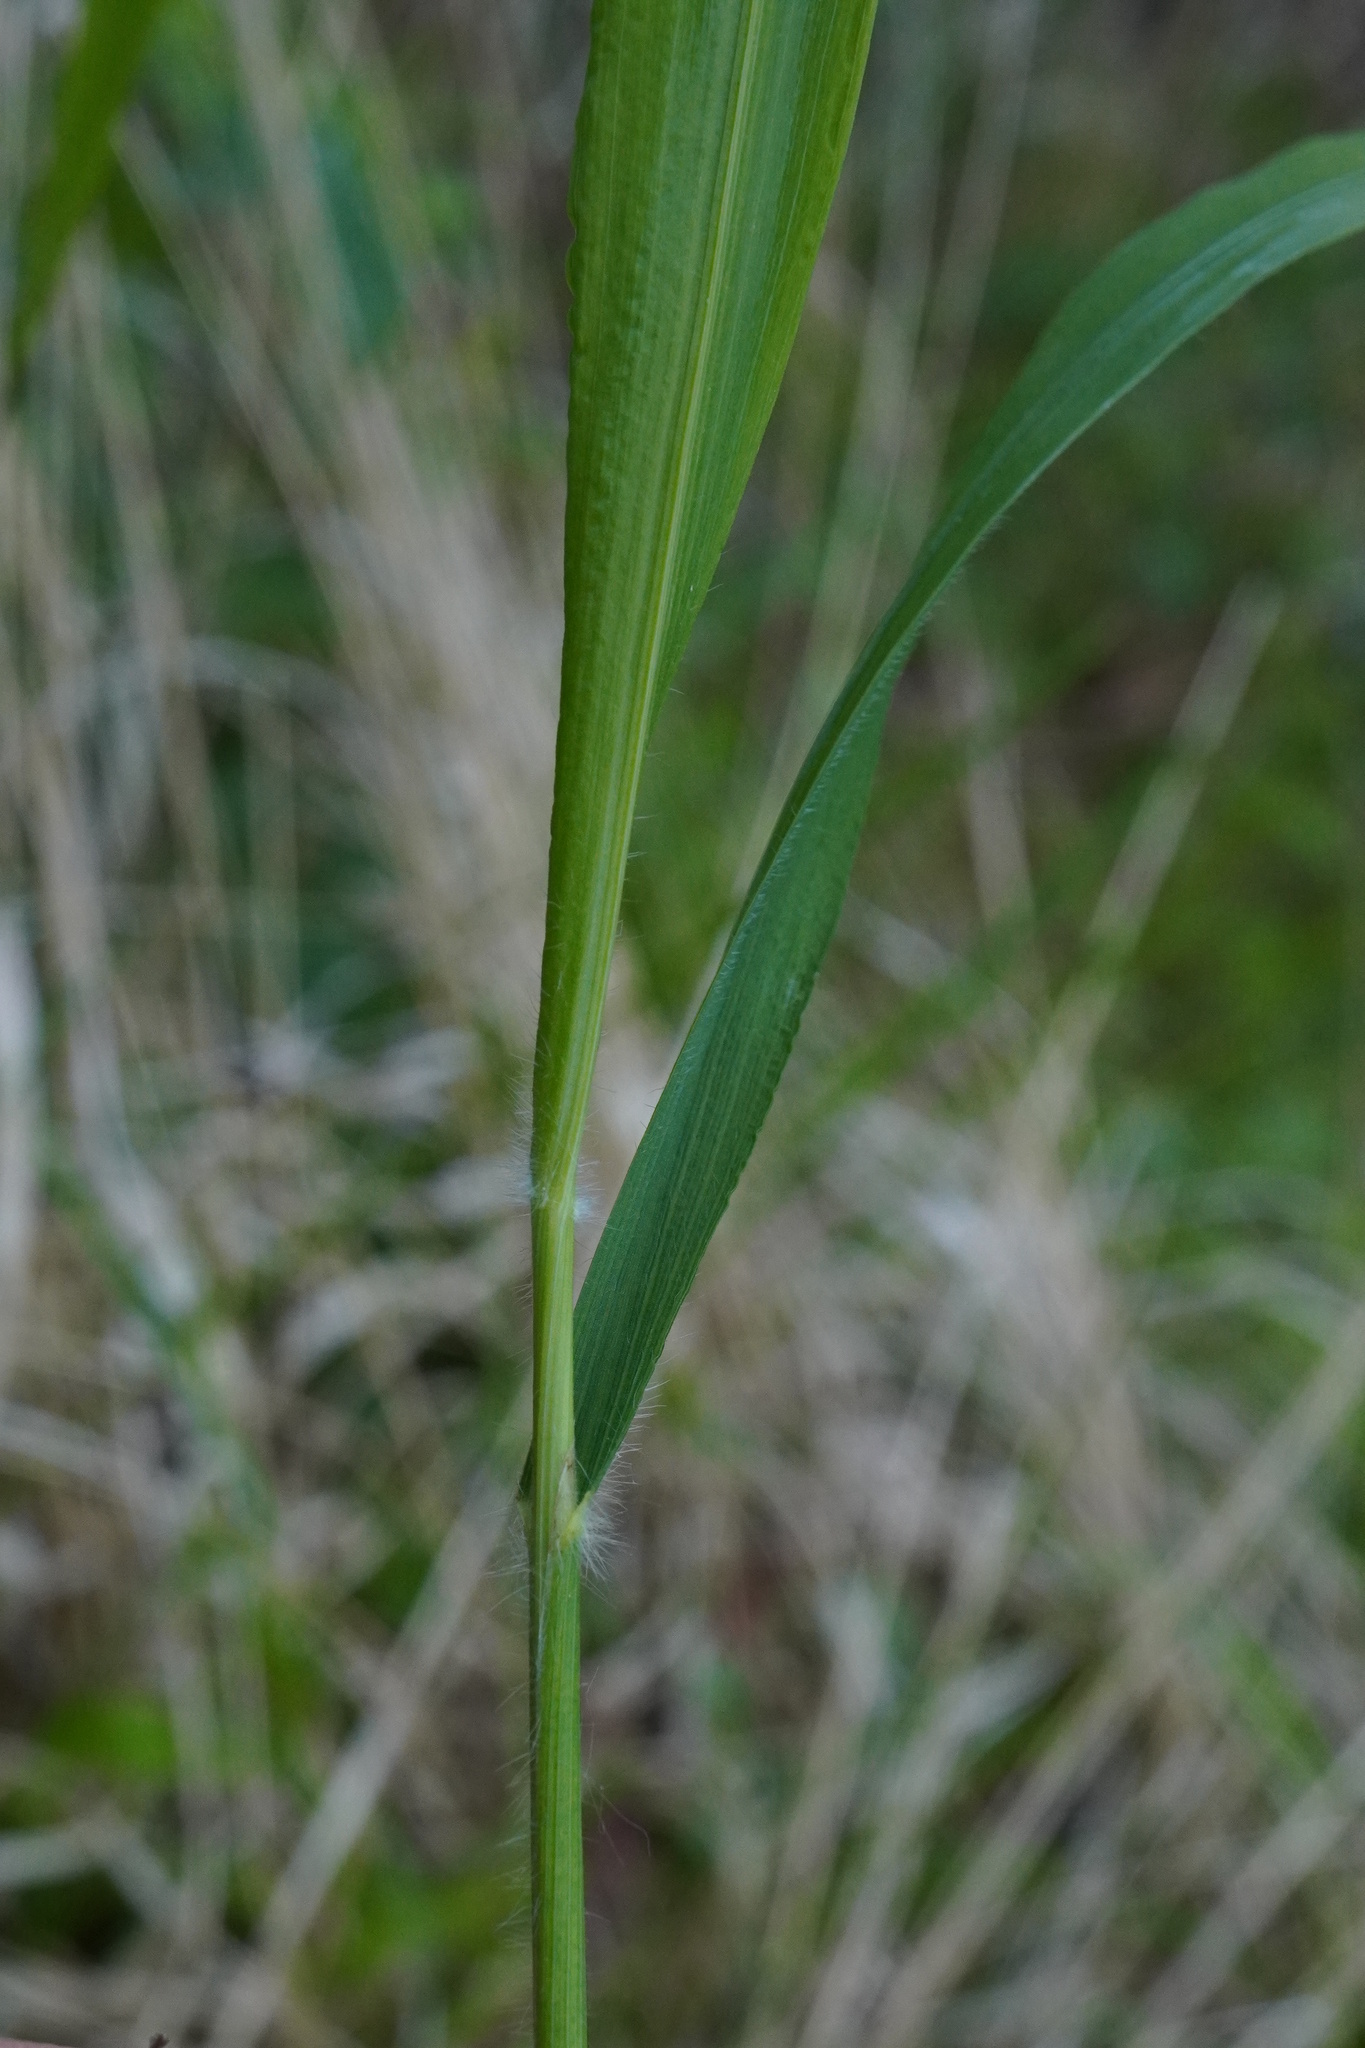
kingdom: Plantae
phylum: Tracheophyta
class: Liliopsida
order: Poales
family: Poaceae
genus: Brachypodium
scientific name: Brachypodium sylvaticum
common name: False-brome
